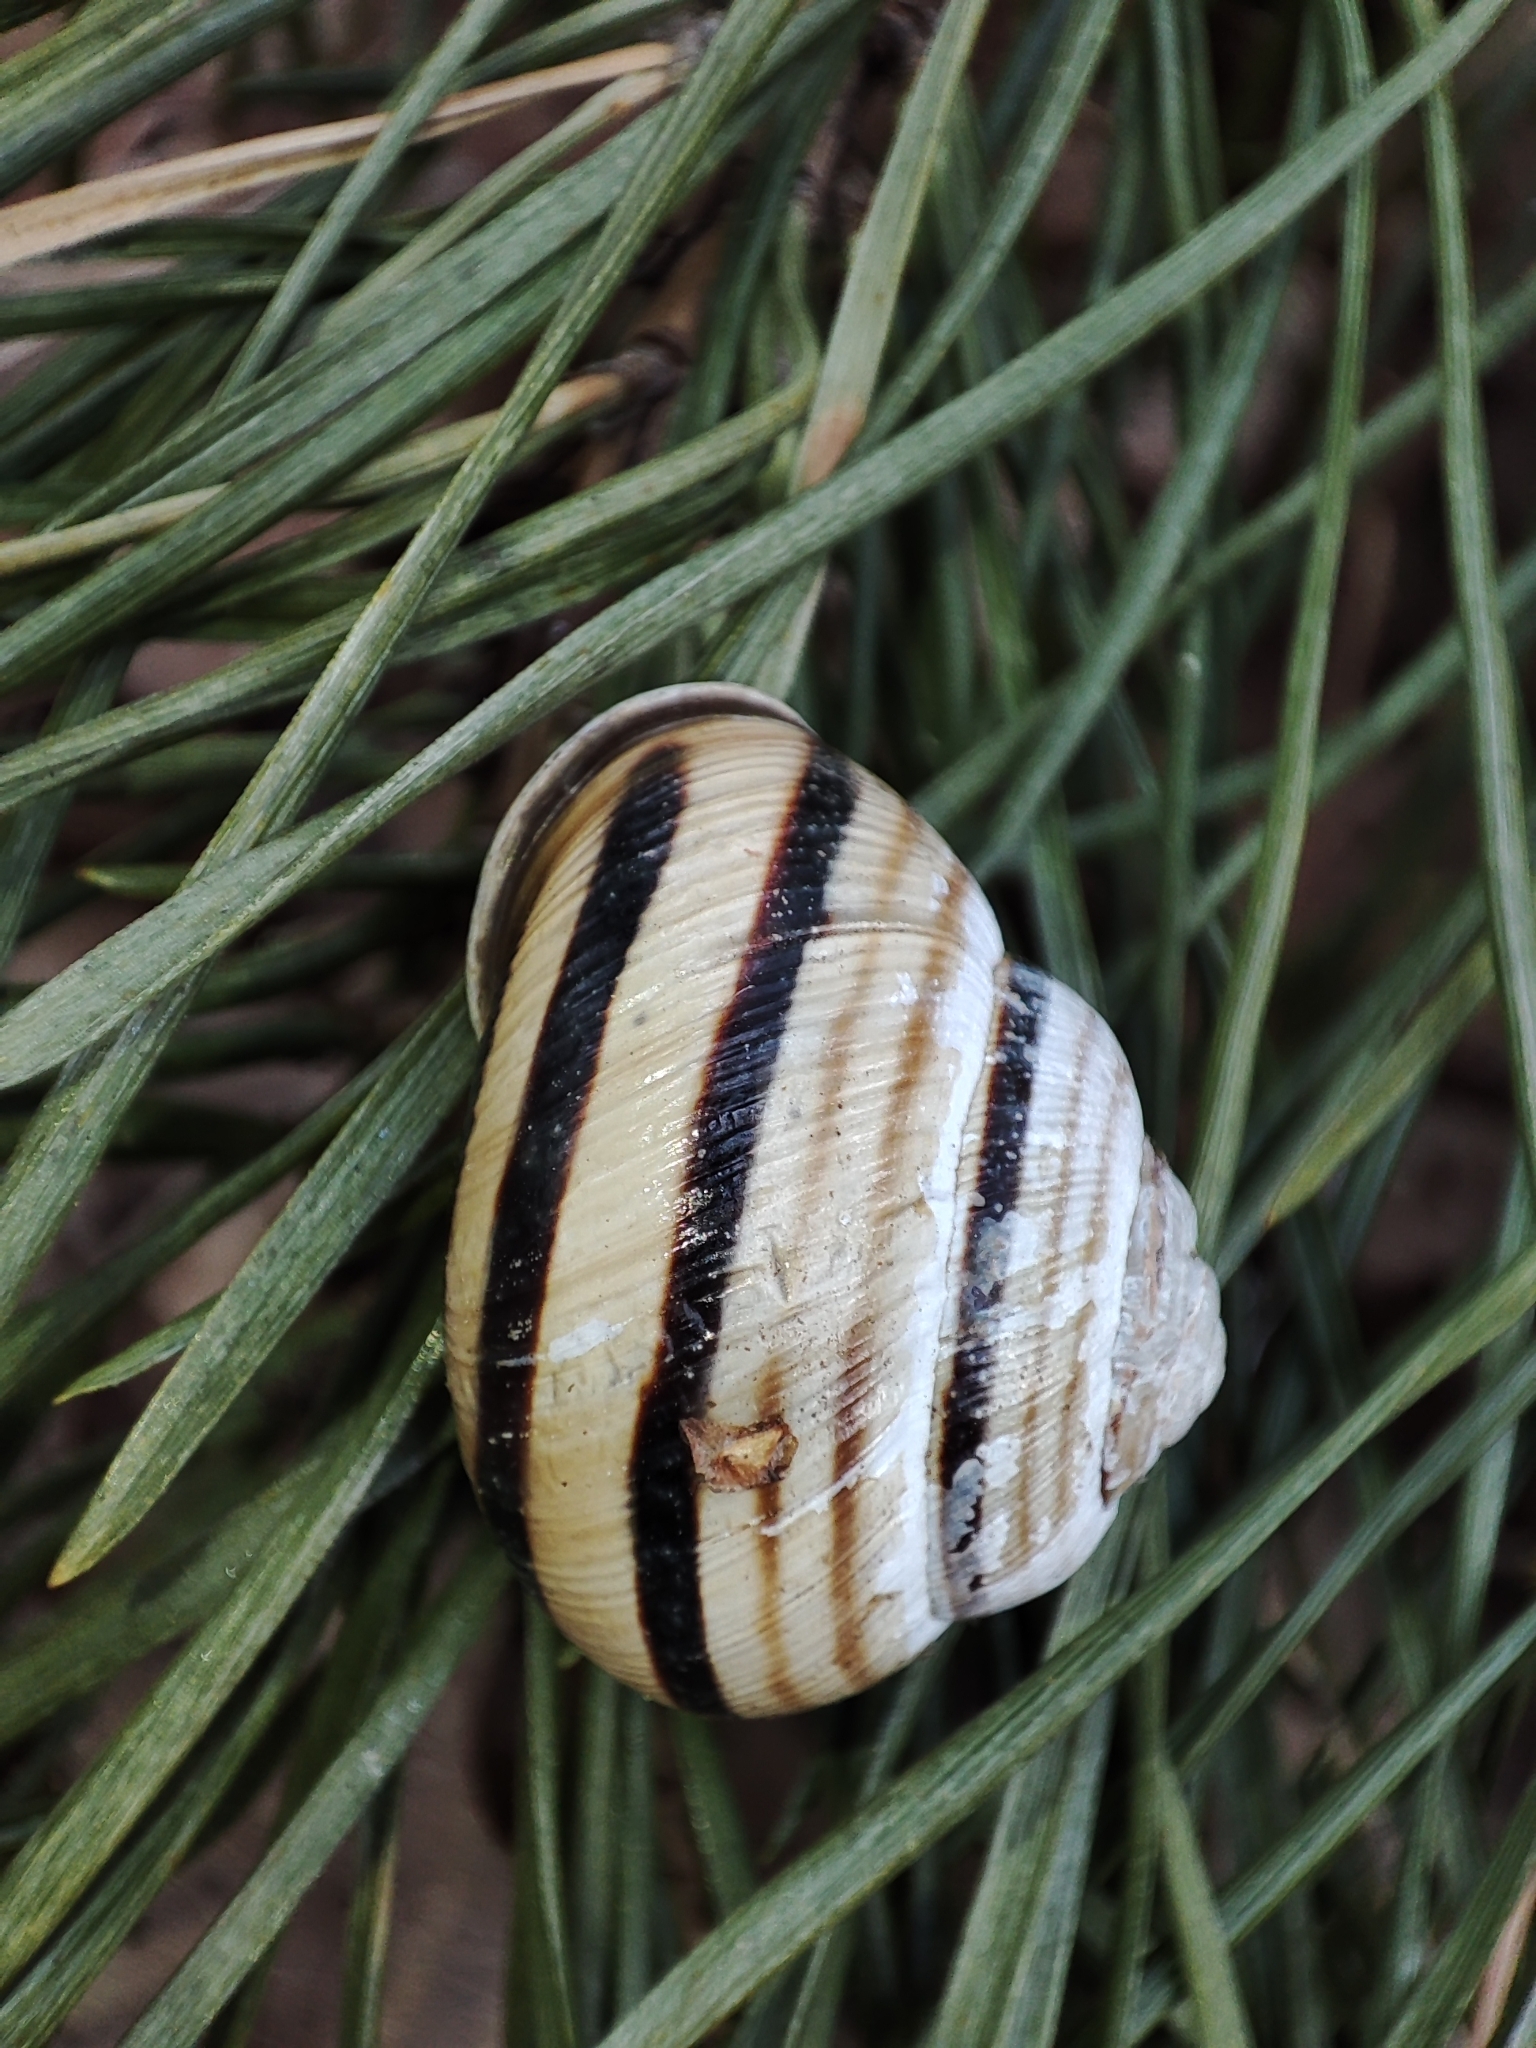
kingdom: Animalia
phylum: Mollusca
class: Gastropoda
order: Stylommatophora
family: Helicidae
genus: Caucasotachea
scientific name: Caucasotachea vindobonensis
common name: European helicid land snail
